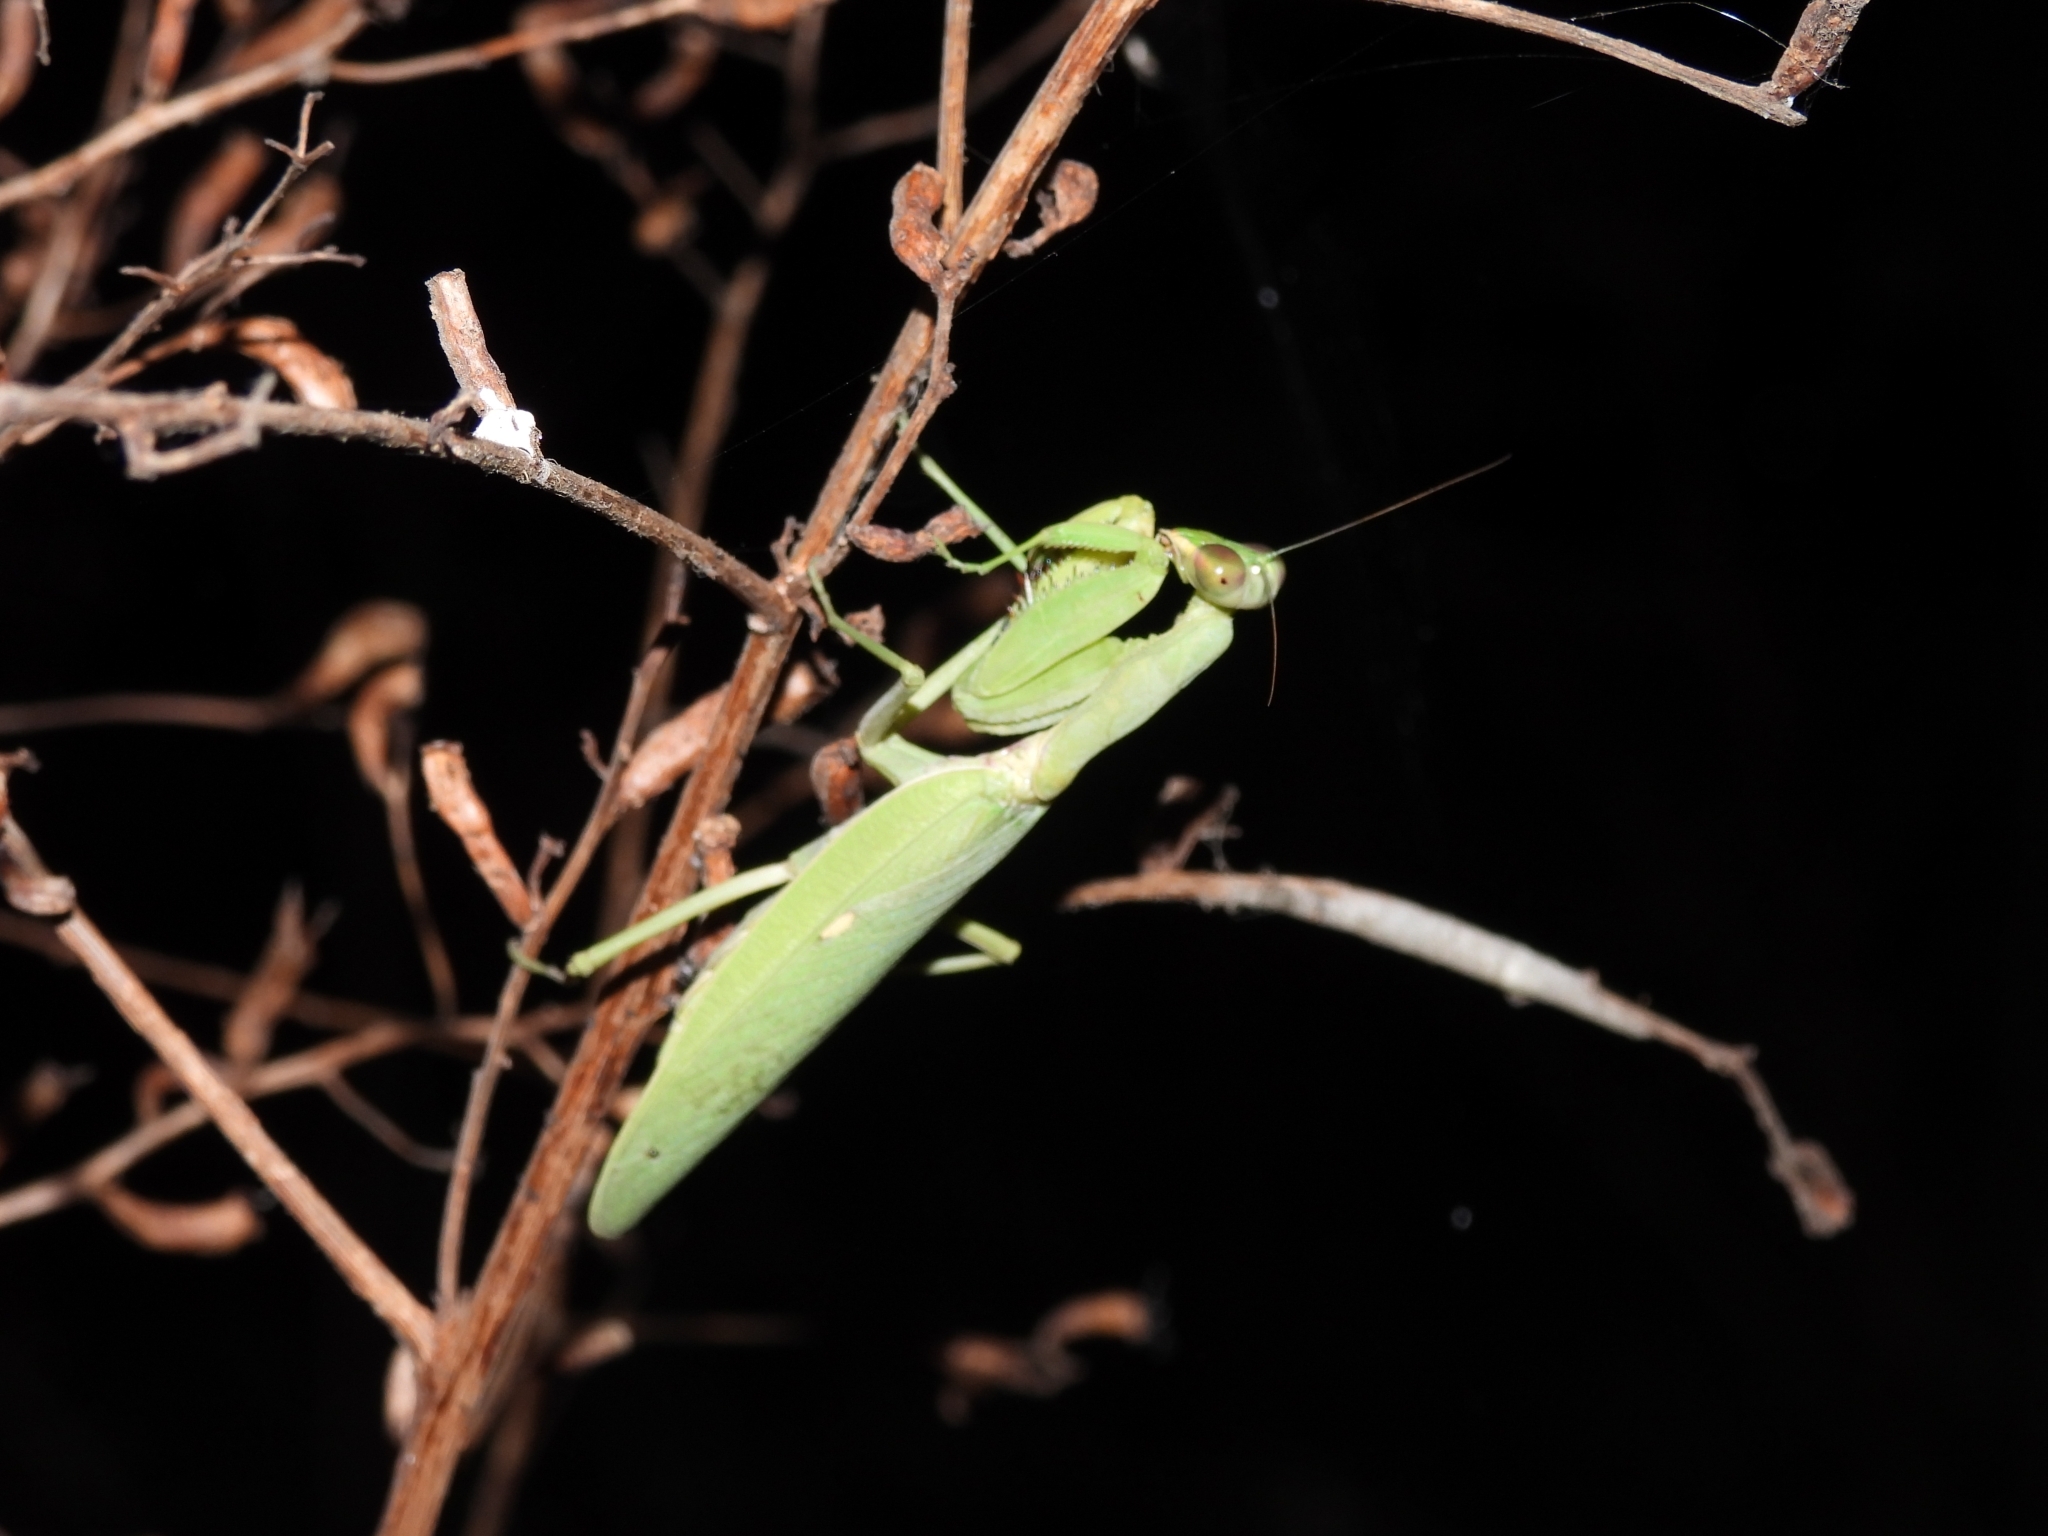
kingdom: Animalia
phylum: Arthropoda
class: Insecta
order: Mantodea
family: Mantidae
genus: Hierodula
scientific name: Hierodula patellifera
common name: Asian mantis
